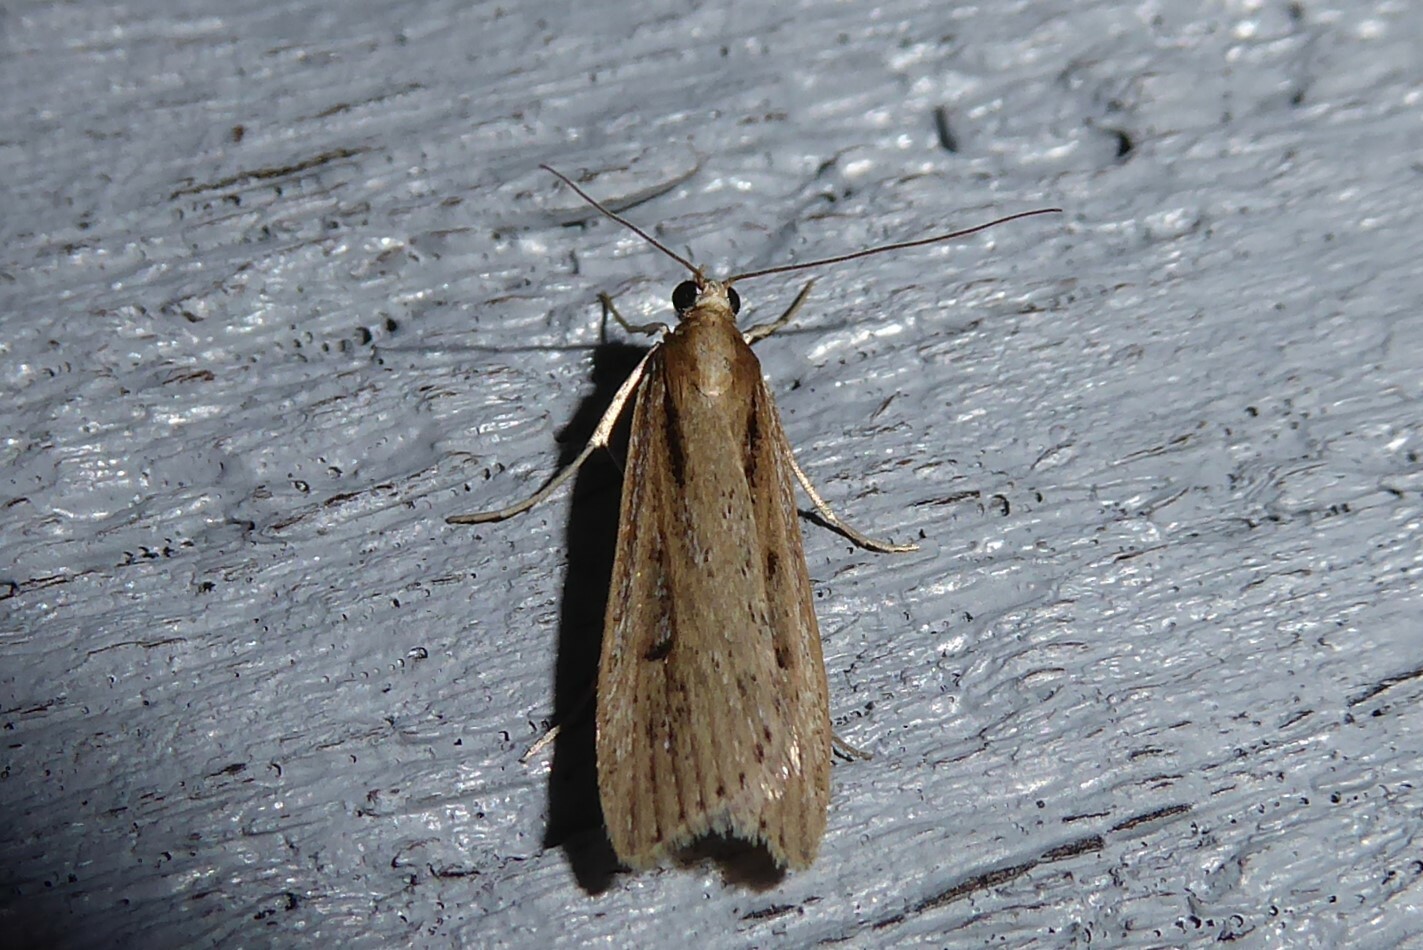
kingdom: Animalia
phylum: Arthropoda
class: Insecta
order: Lepidoptera
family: Crambidae
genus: Eudonia
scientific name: Eudonia sabulosella
